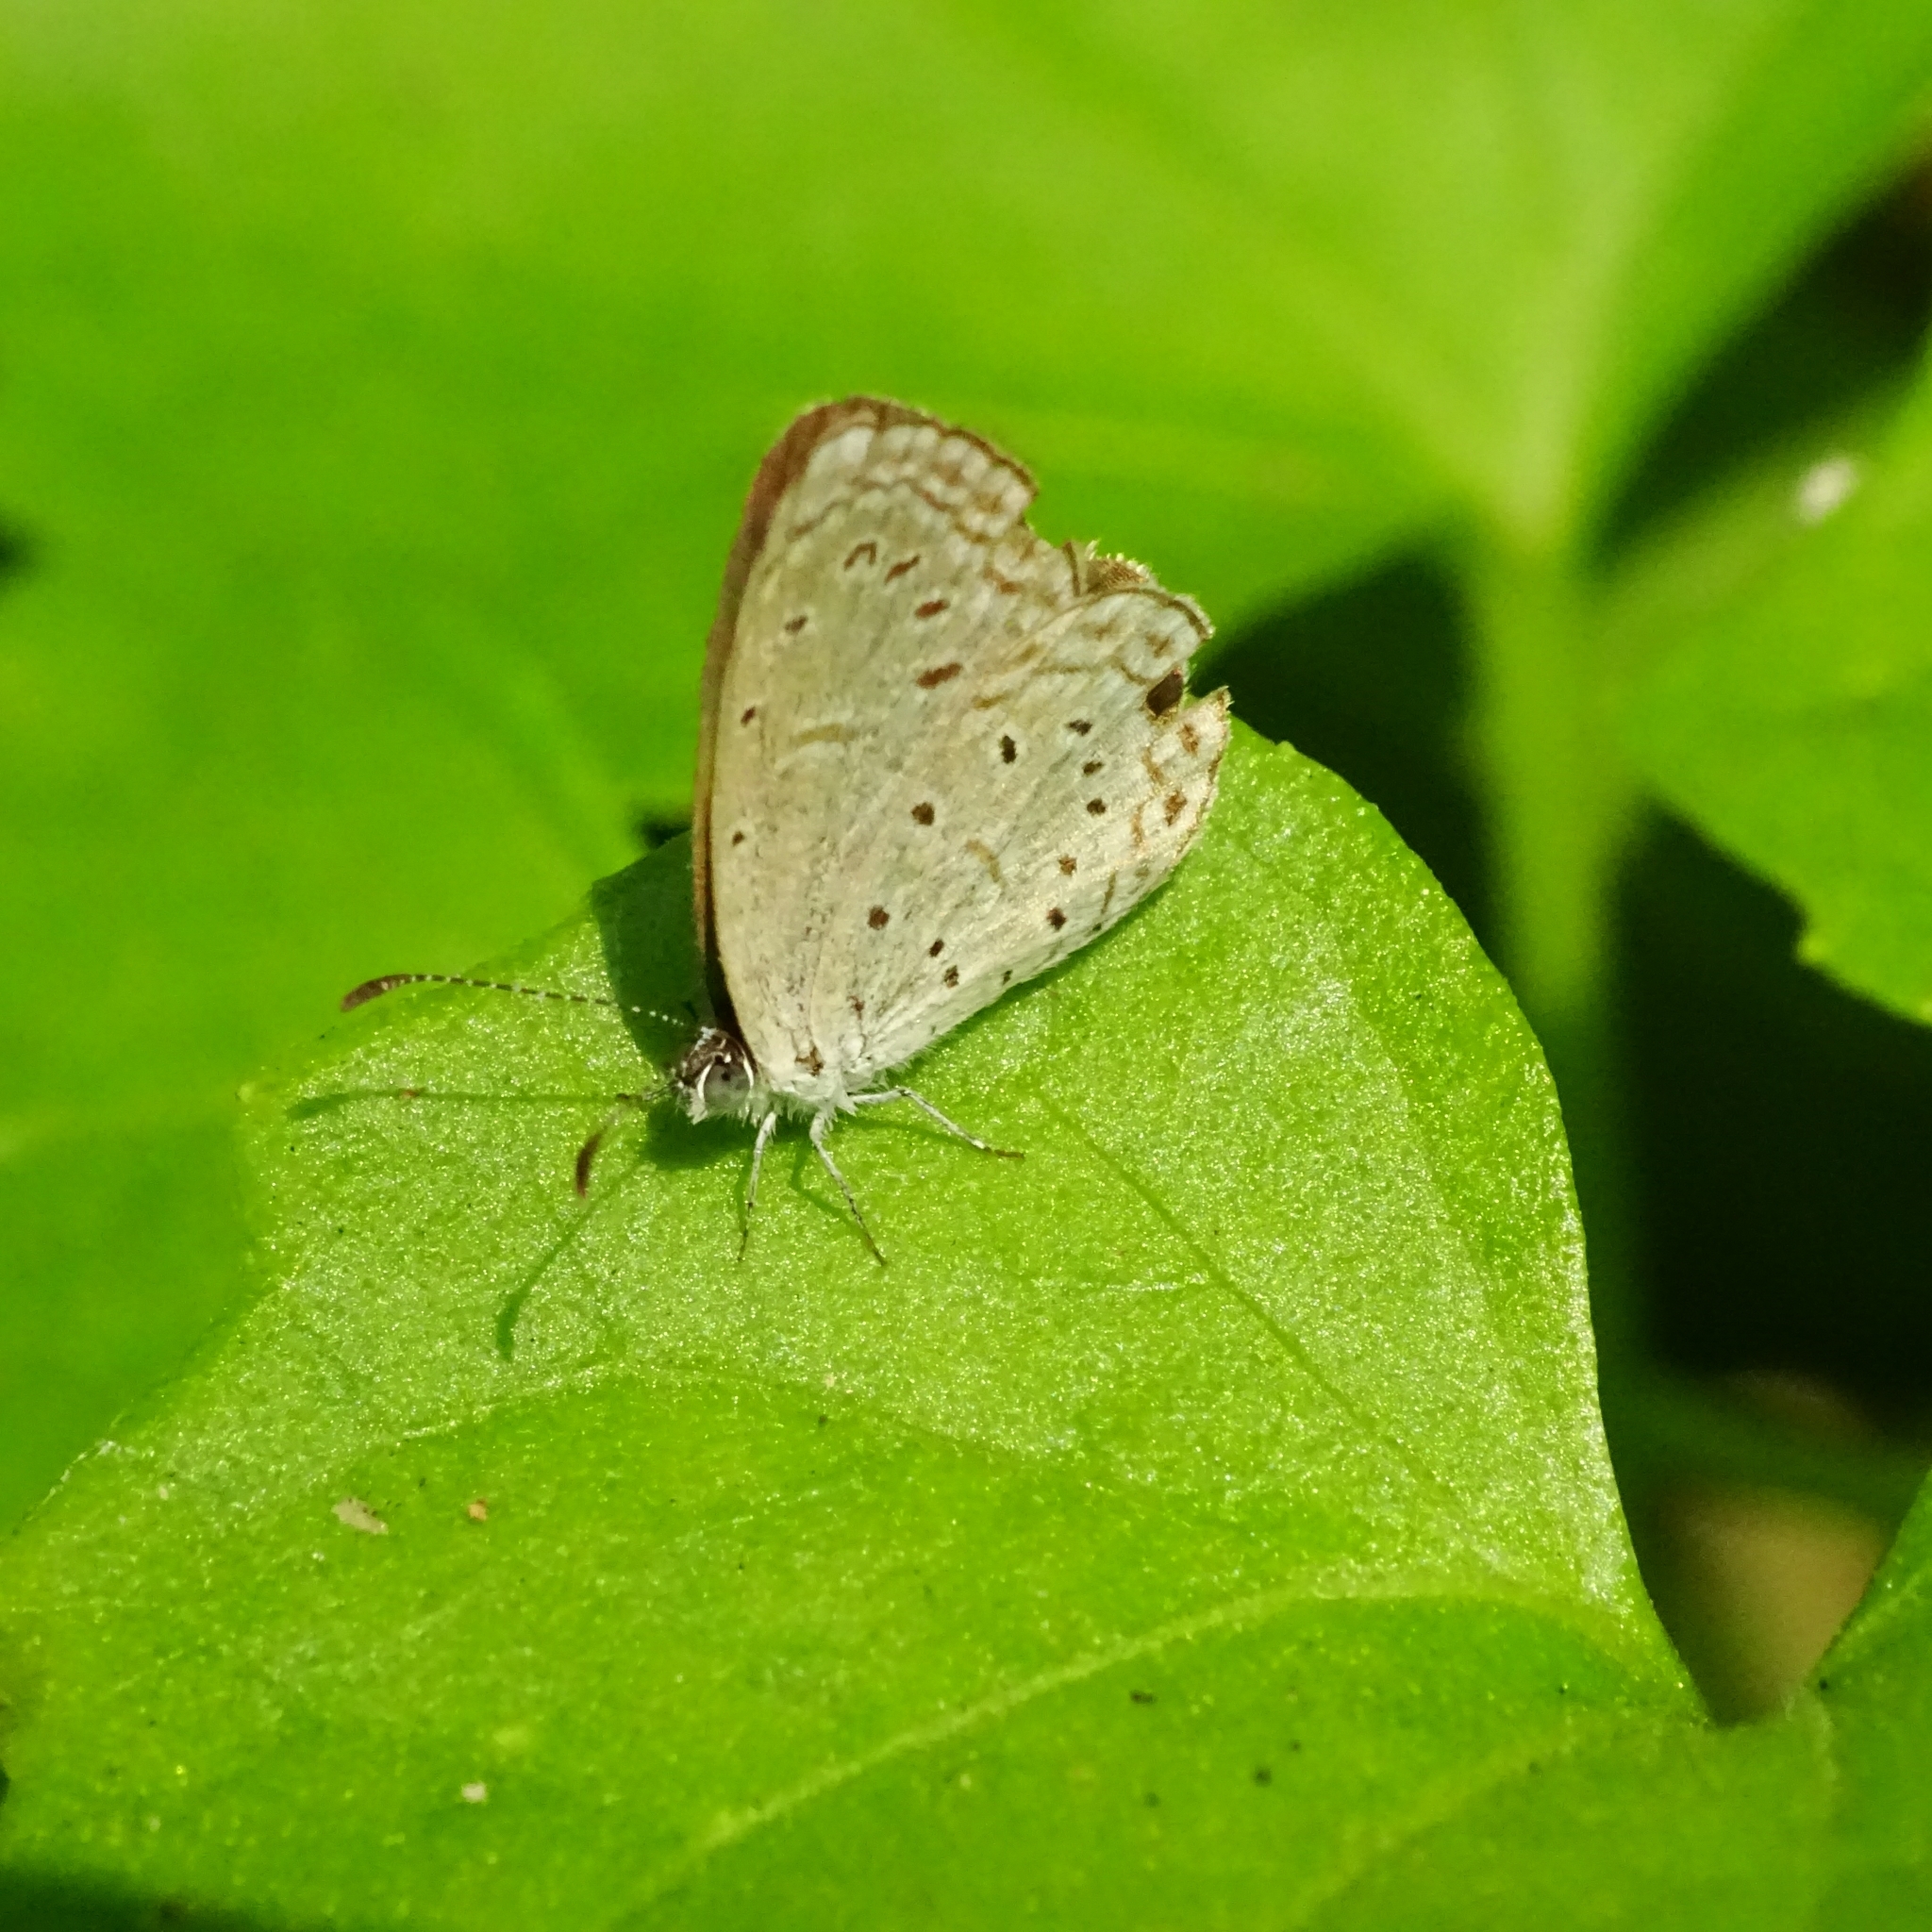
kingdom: Animalia
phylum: Arthropoda
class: Insecta
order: Lepidoptera
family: Lycaenidae
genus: Zizula
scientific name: Zizula hylax
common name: Gaika blue
